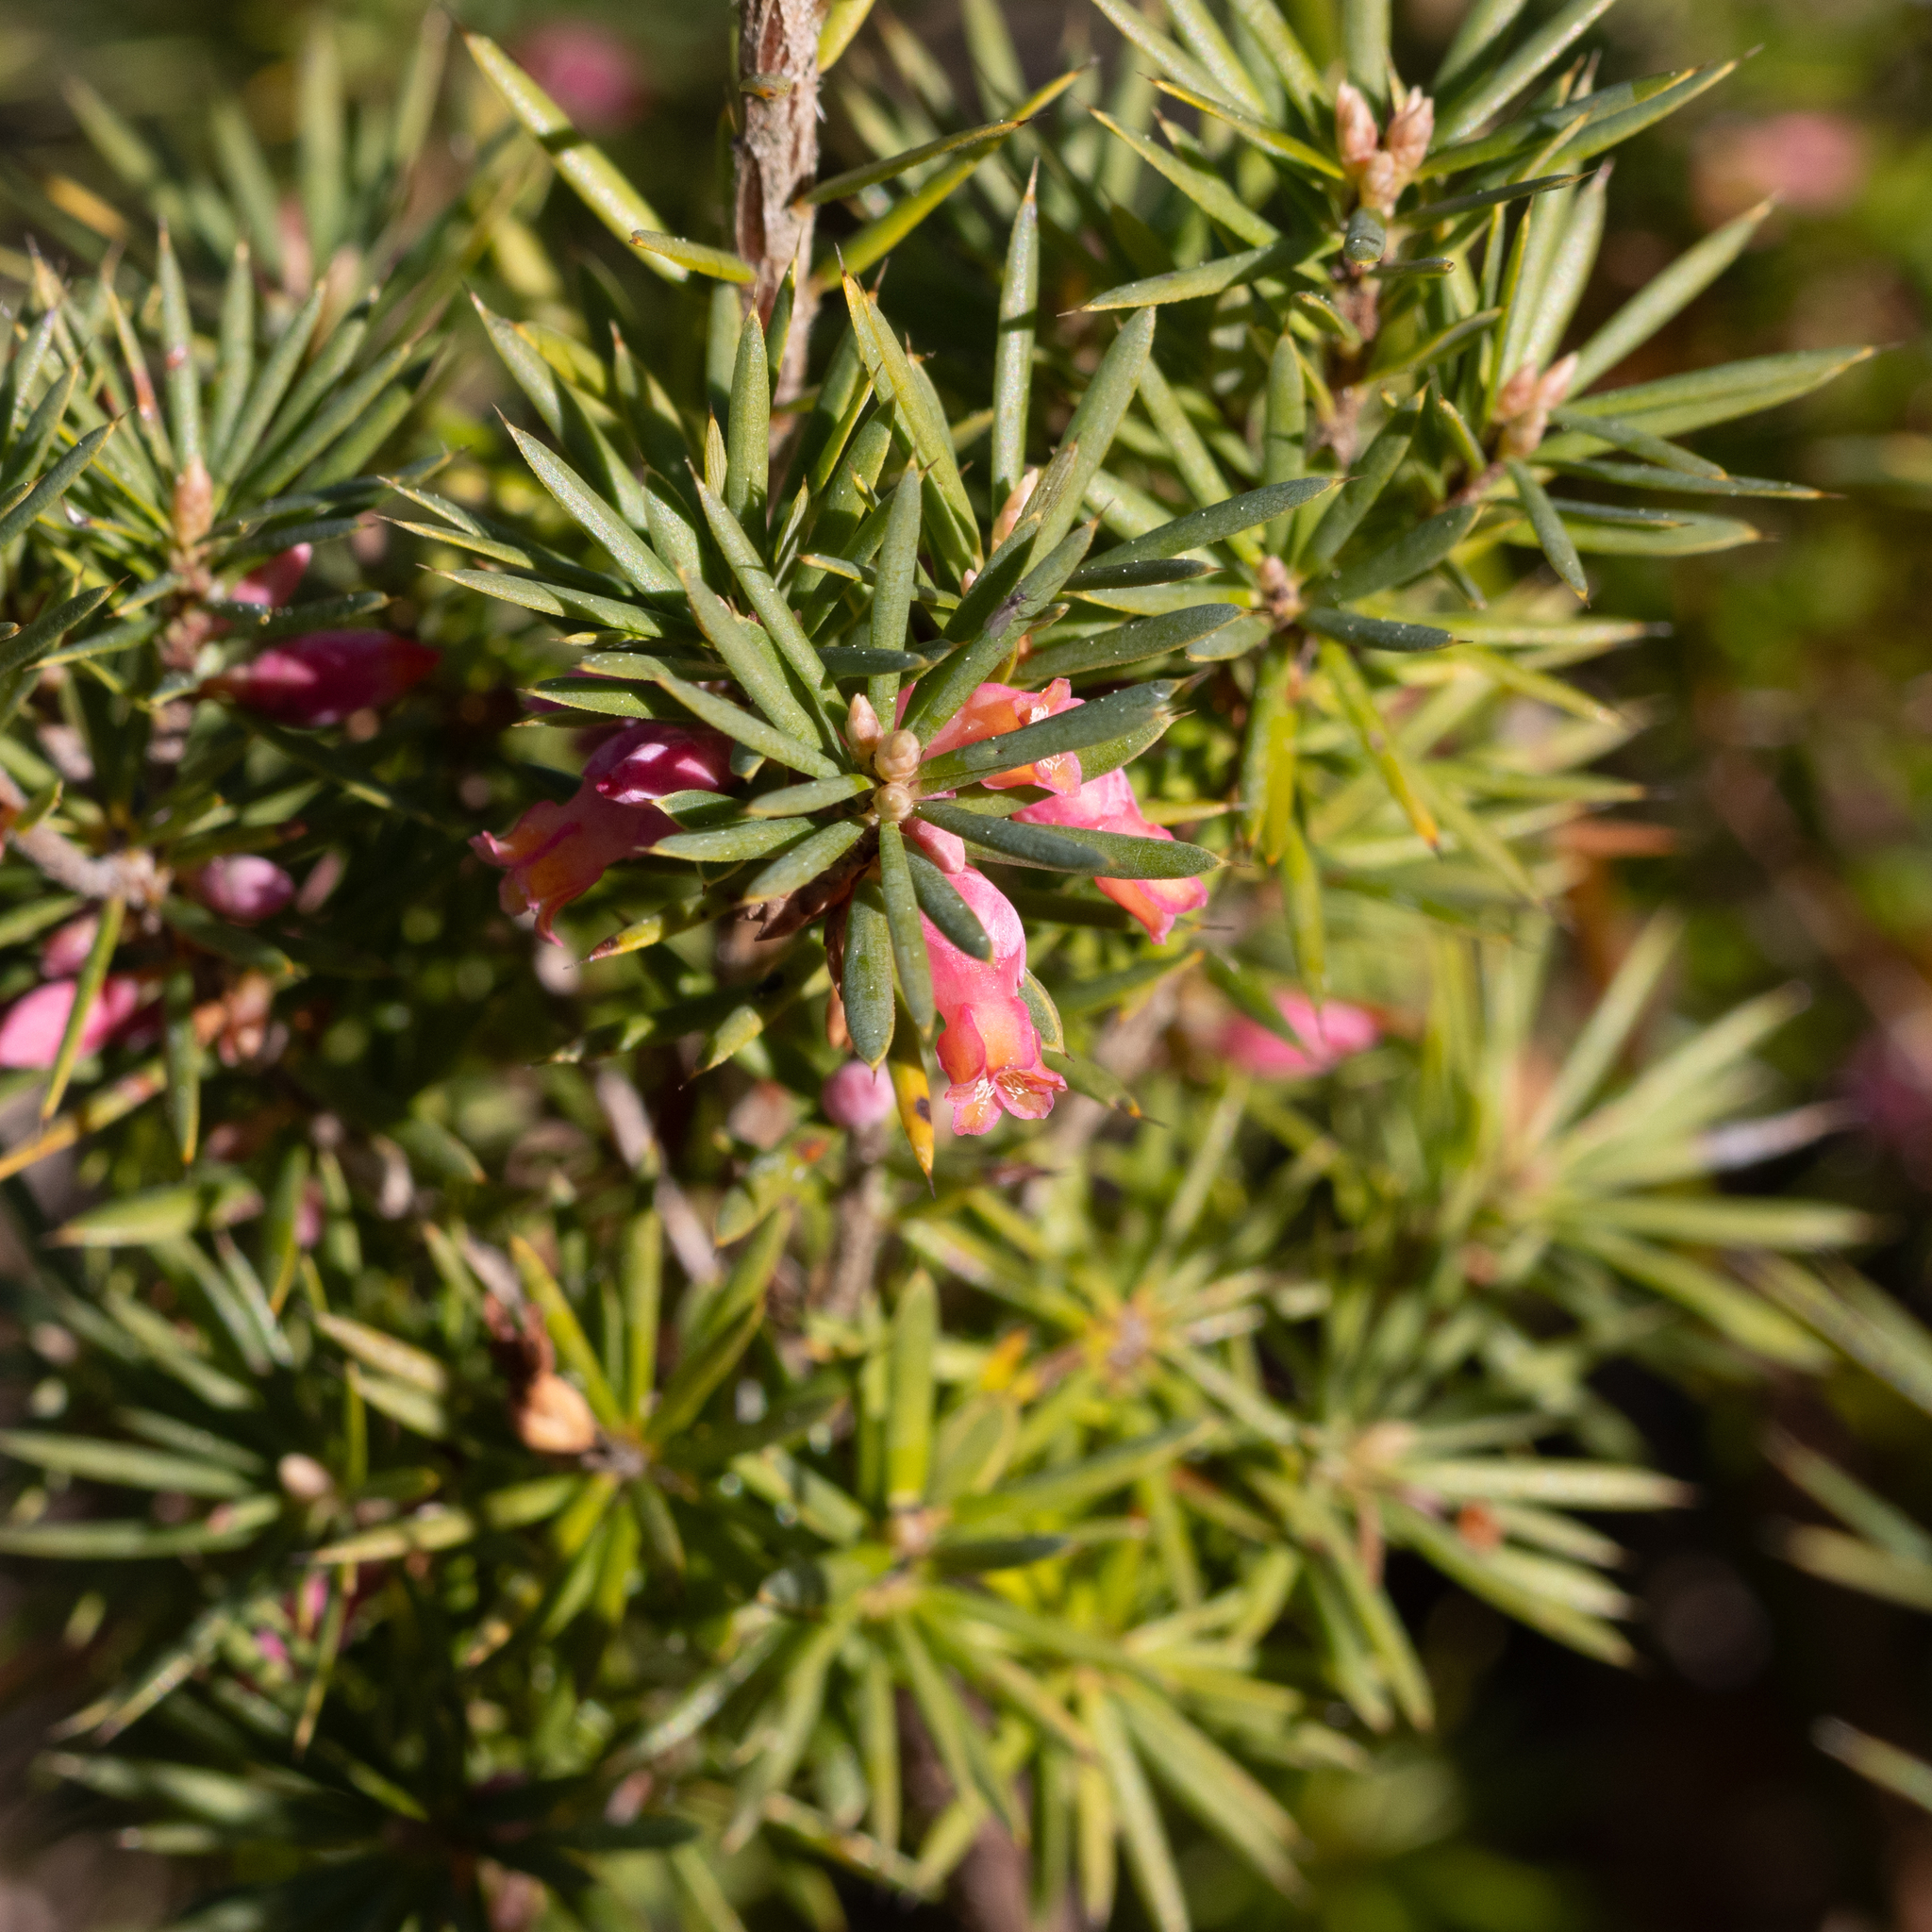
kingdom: Plantae
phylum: Tracheophyta
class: Magnoliopsida
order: Ericales
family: Ericaceae
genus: Brachyloma
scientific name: Brachyloma ericoides
